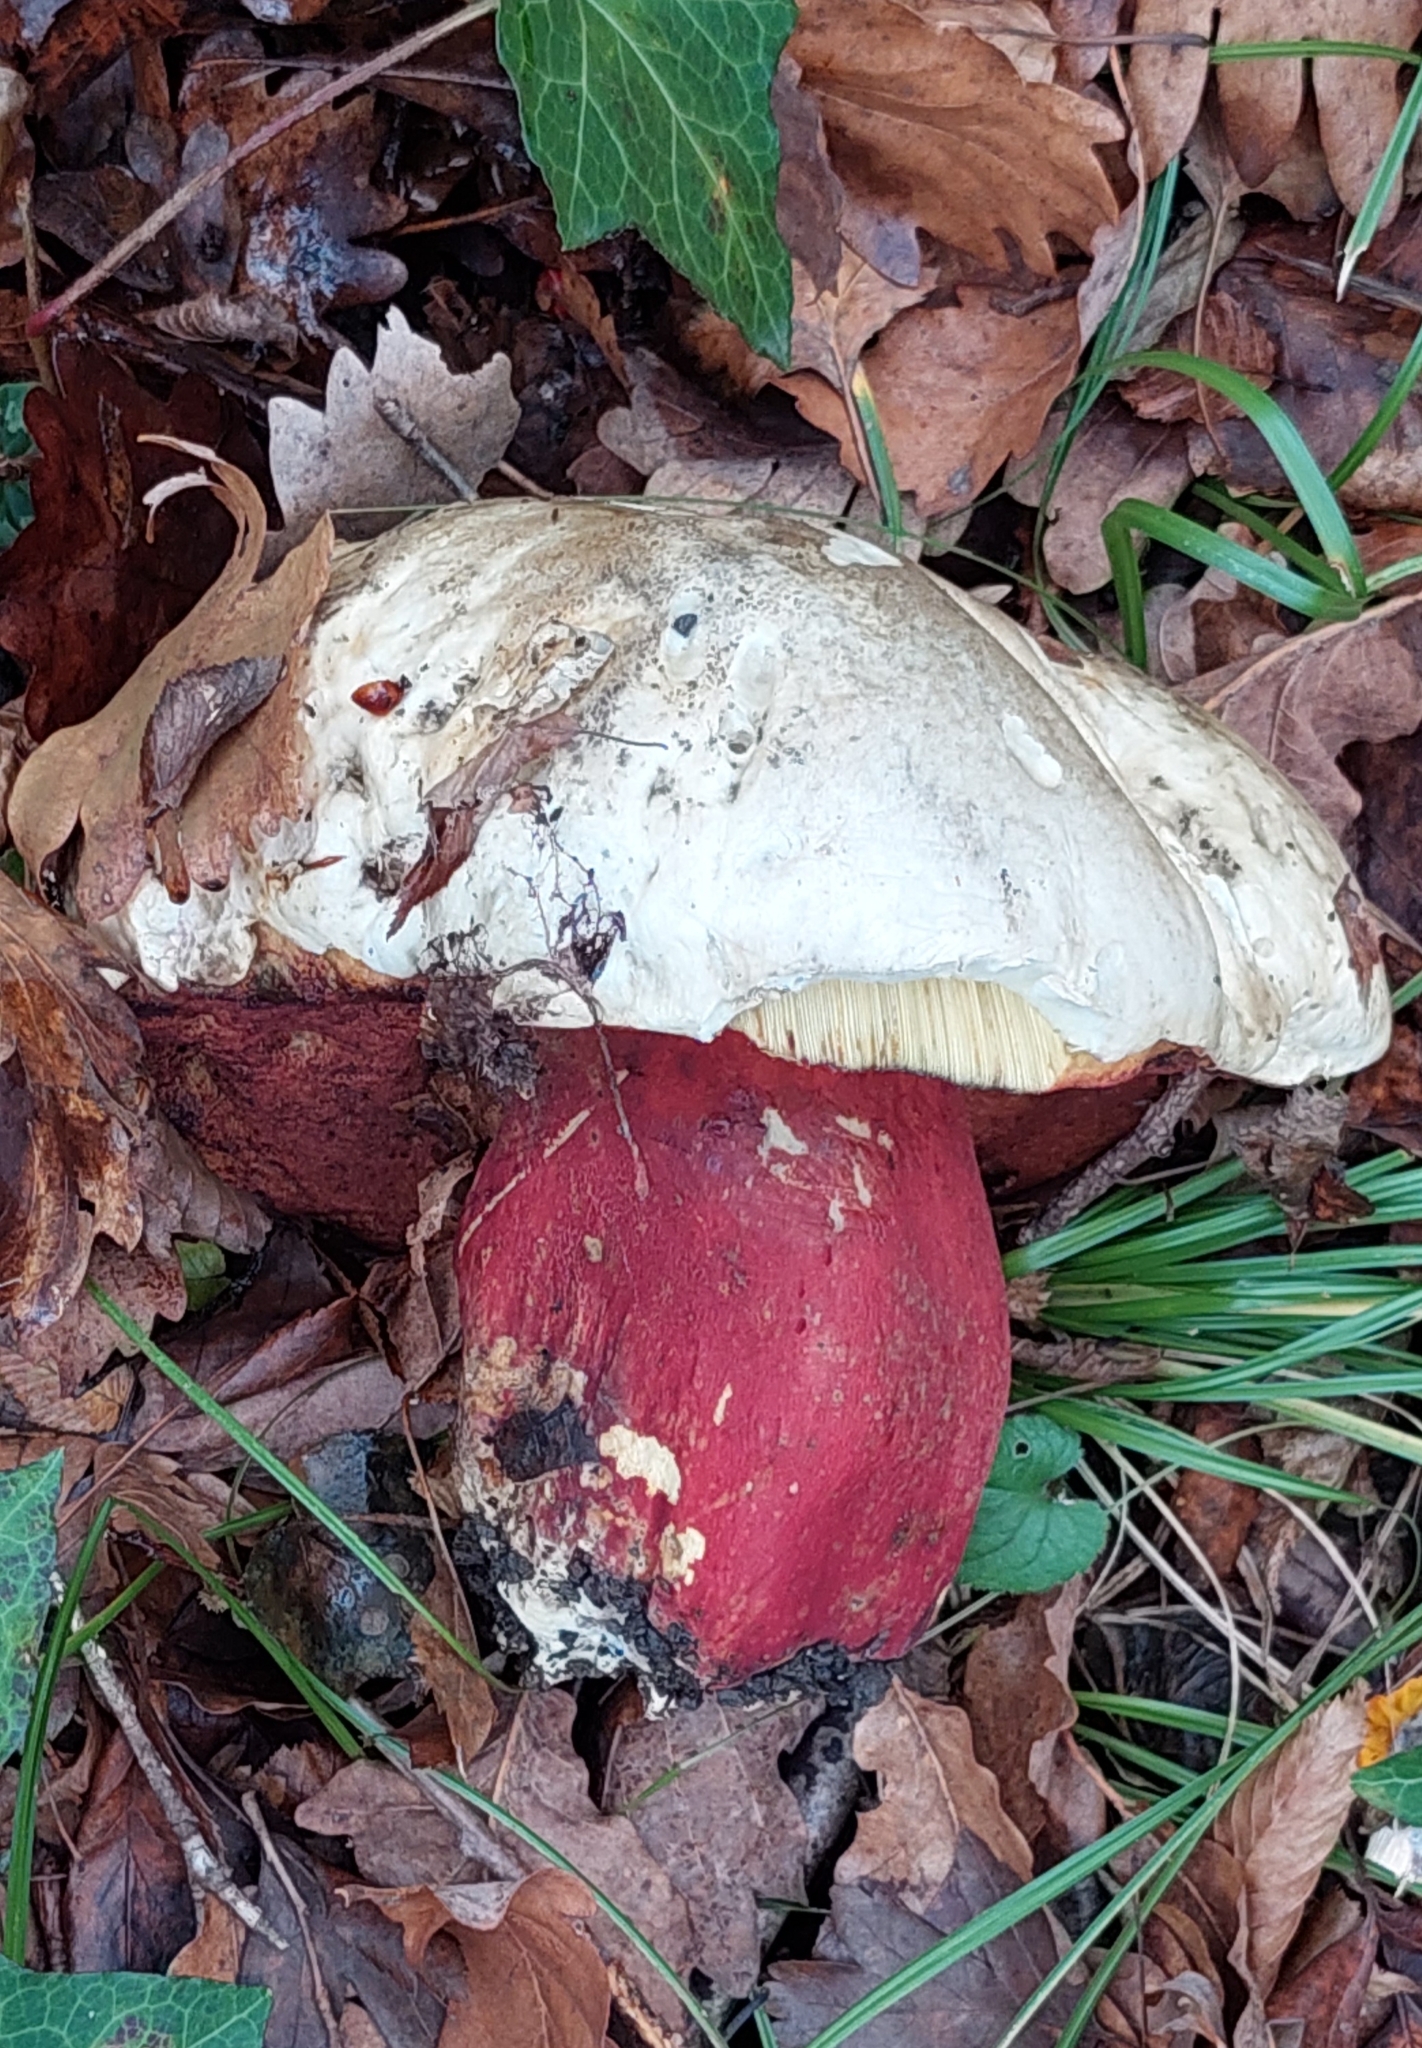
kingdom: Fungi
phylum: Basidiomycota
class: Agaricomycetes
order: Boletales
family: Boletaceae
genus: Rubroboletus
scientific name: Rubroboletus satanas
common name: Devil's bolete
